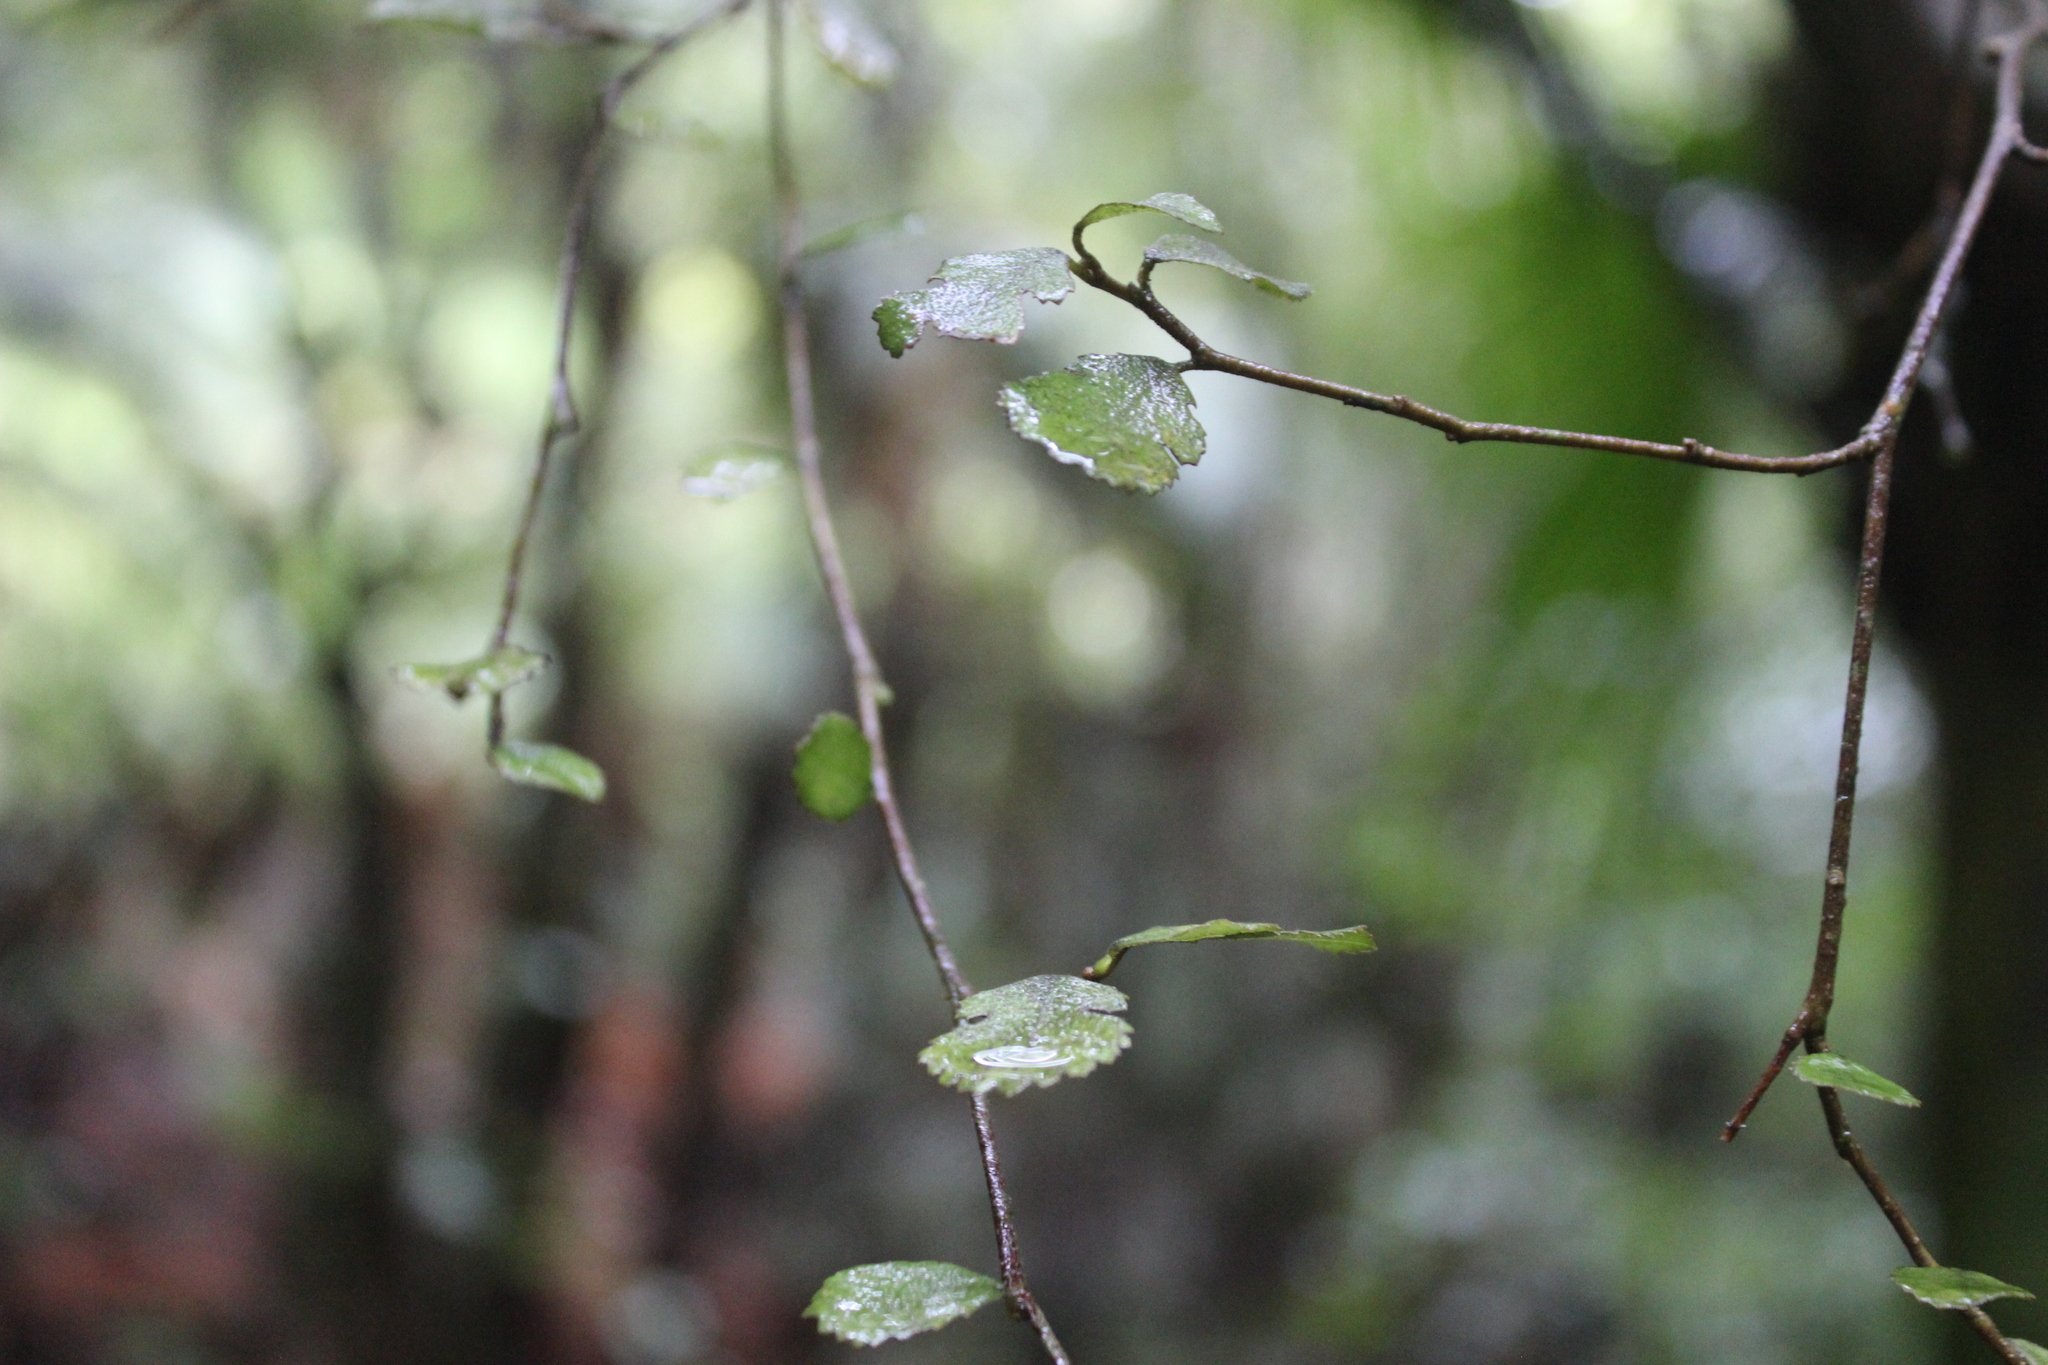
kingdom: Plantae
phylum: Tracheophyta
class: Magnoliopsida
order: Rosales
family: Moraceae
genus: Paratrophis
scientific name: Paratrophis microphylla
